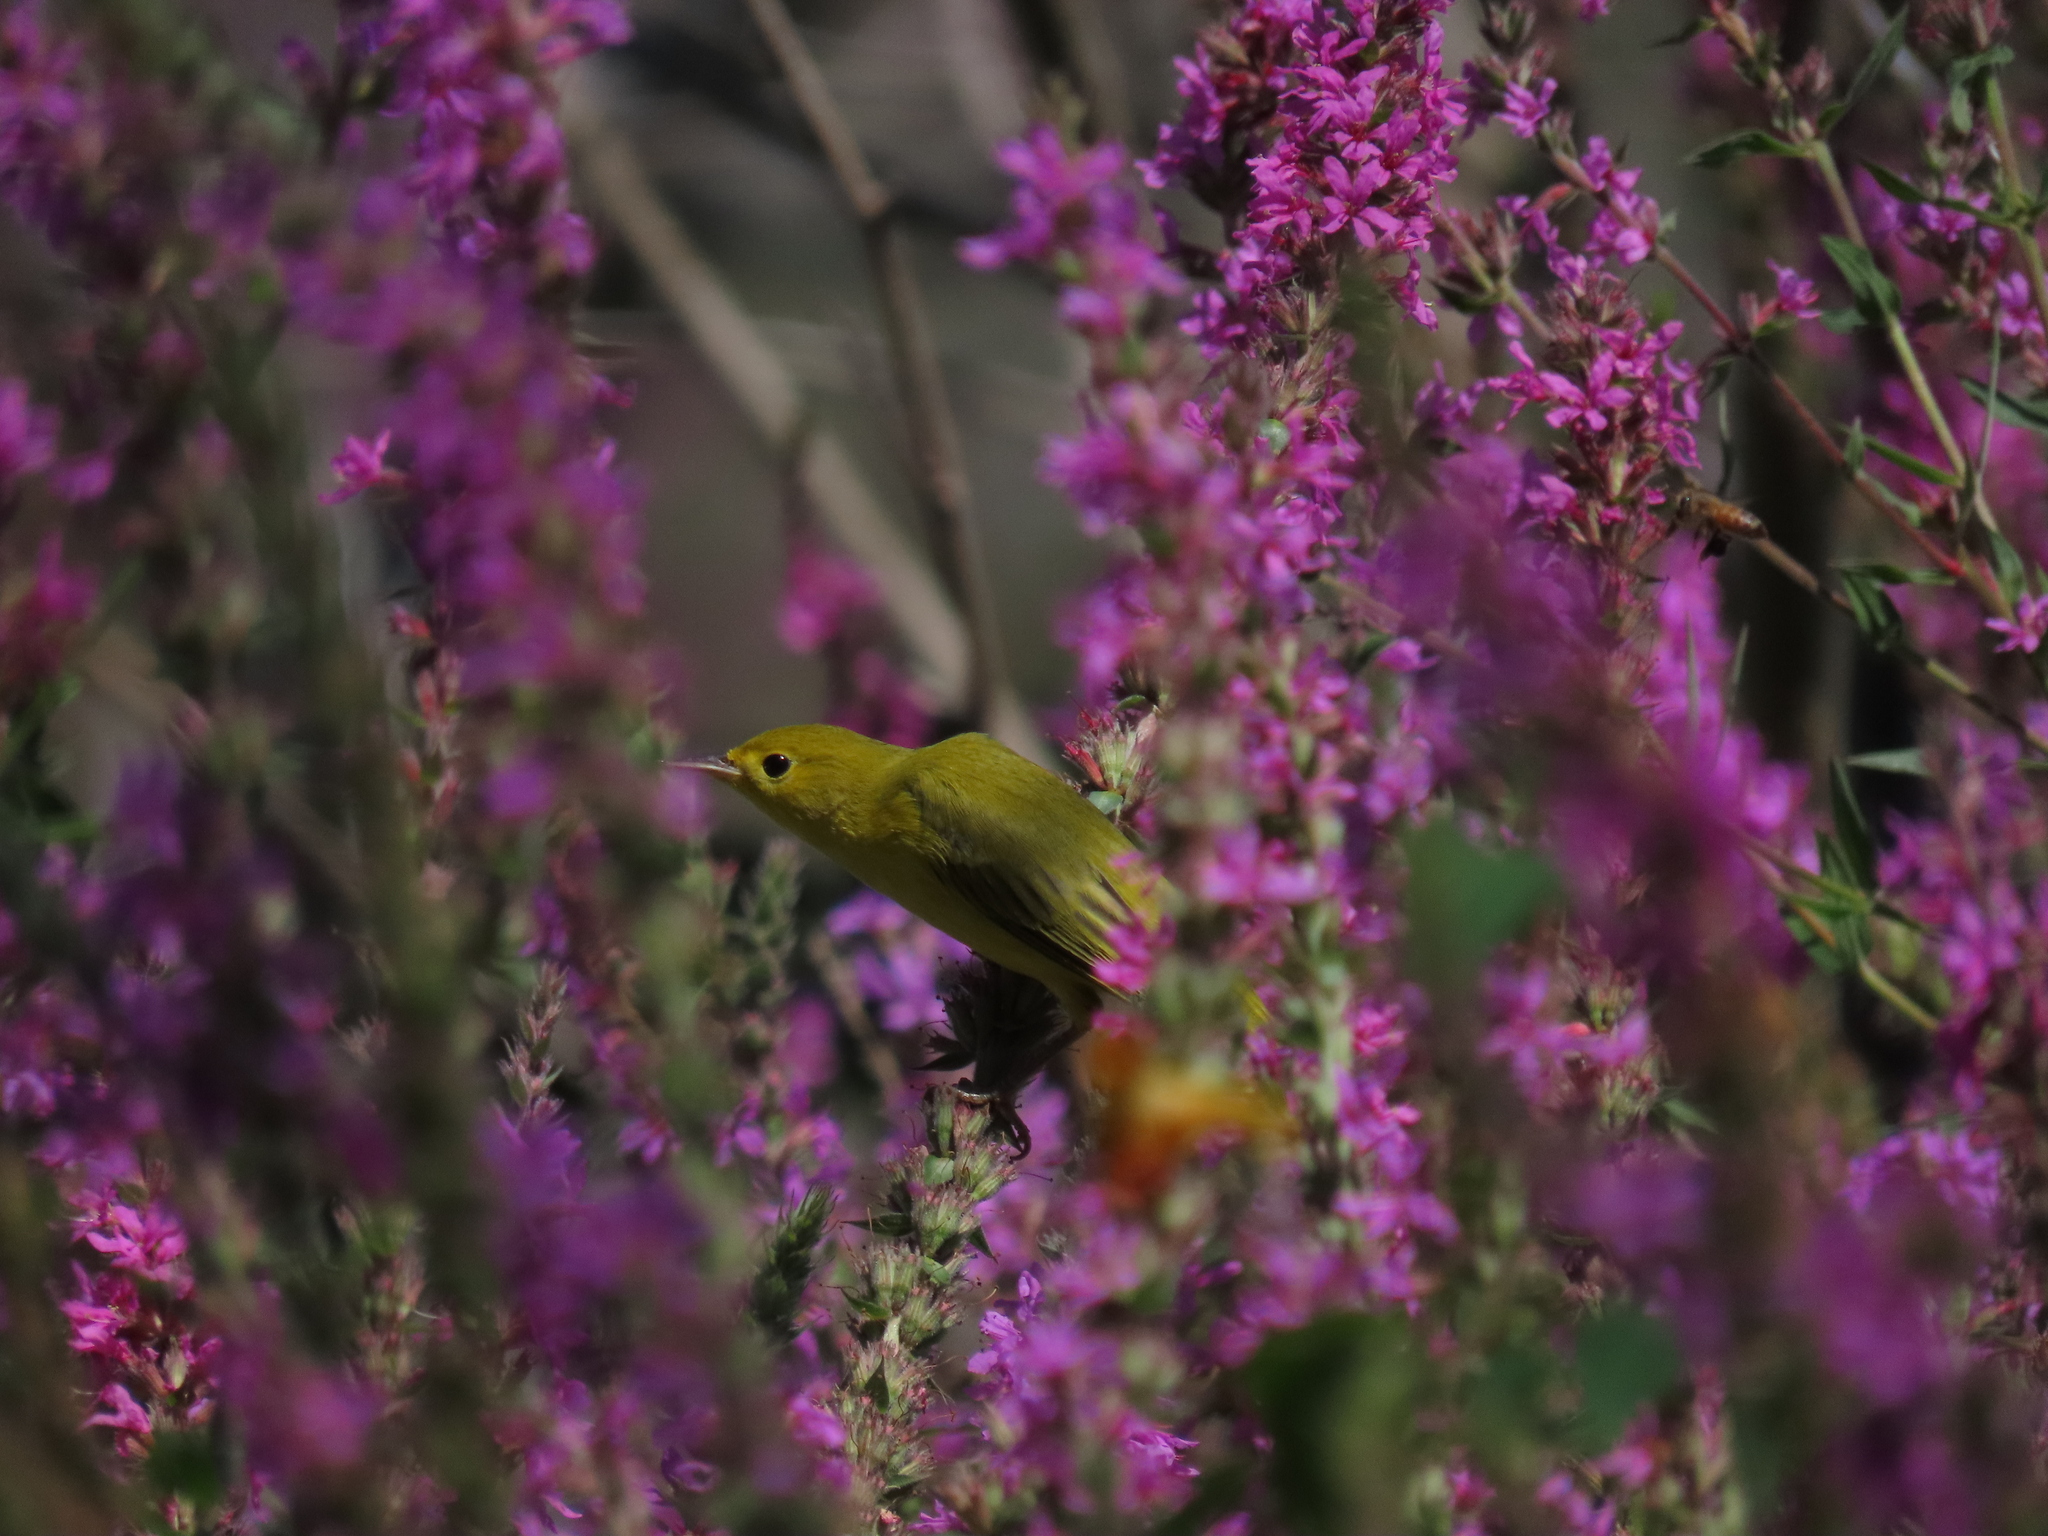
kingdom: Animalia
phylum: Chordata
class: Aves
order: Passeriformes
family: Parulidae
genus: Setophaga
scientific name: Setophaga petechia
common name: Yellow warbler
